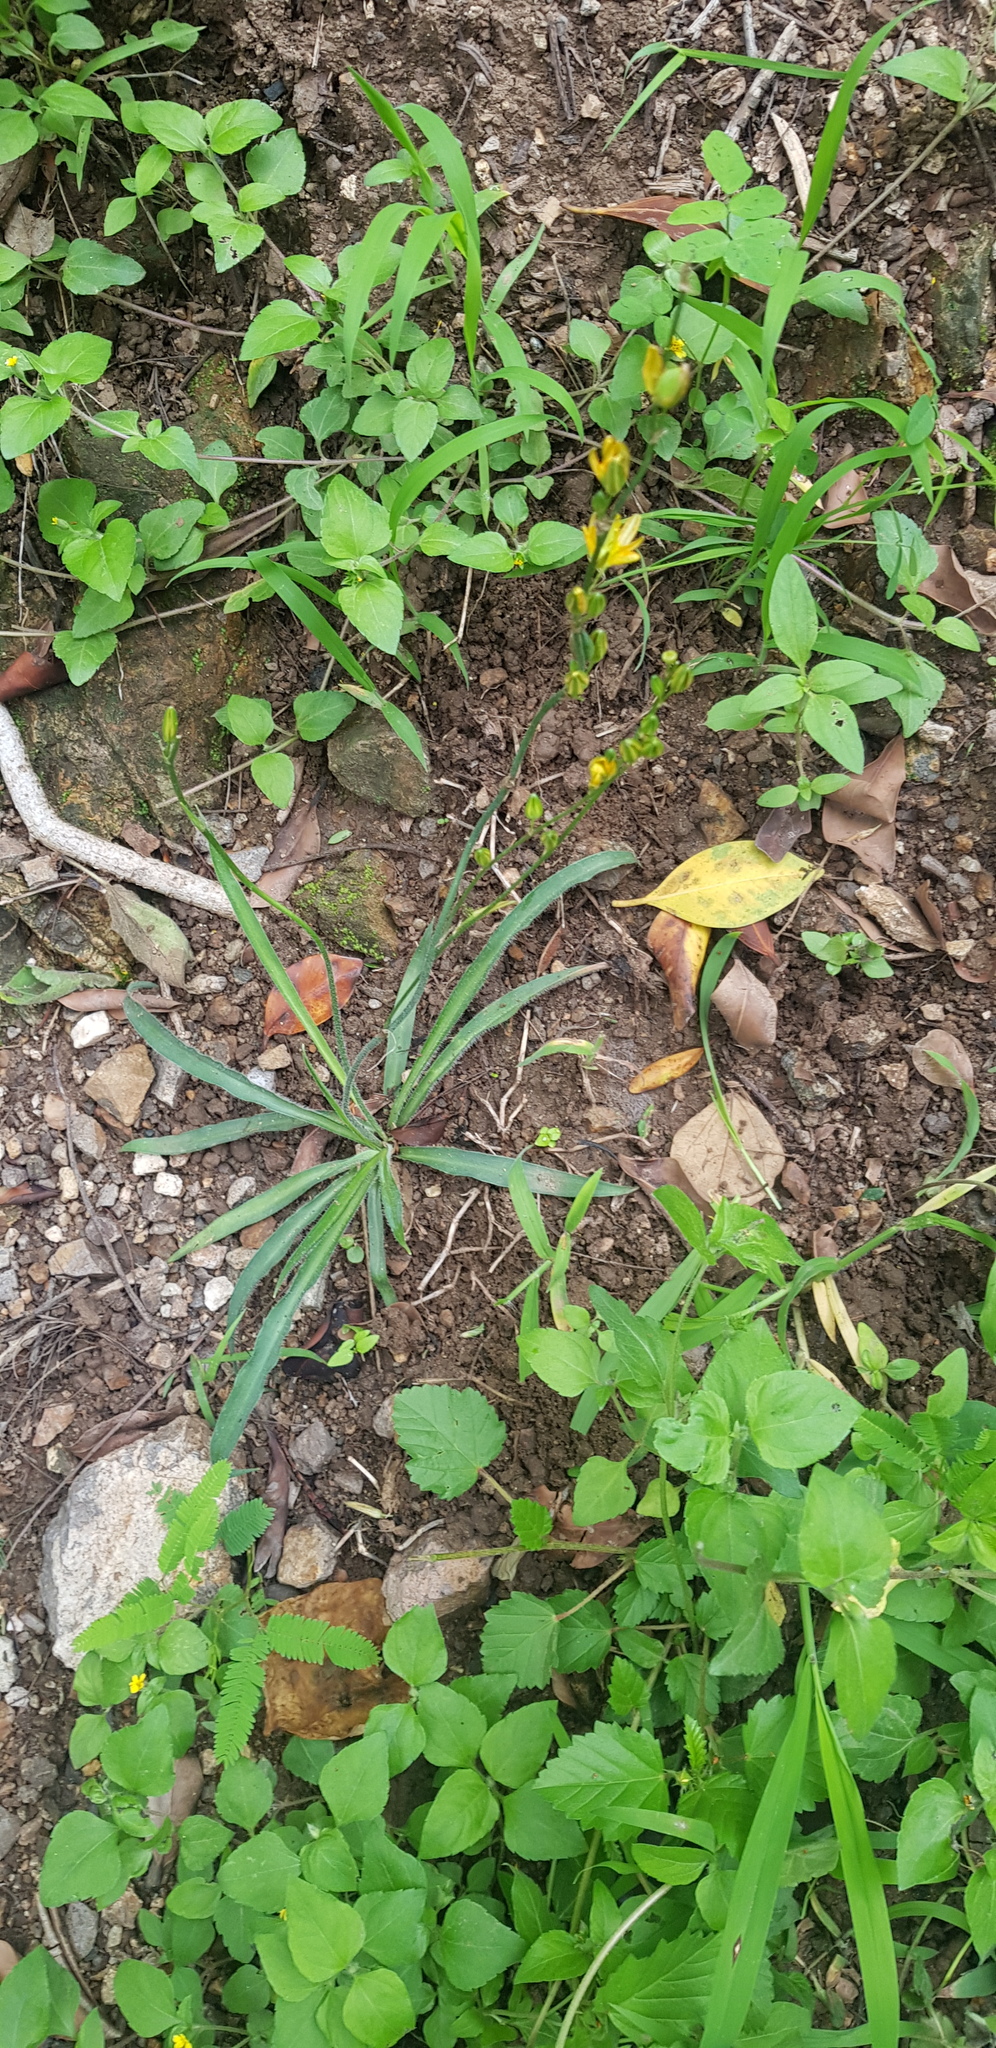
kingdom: Plantae
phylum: Tracheophyta
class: Liliopsida
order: Asparagales
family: Asparagaceae
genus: Echeandia
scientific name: Echeandia vestita
